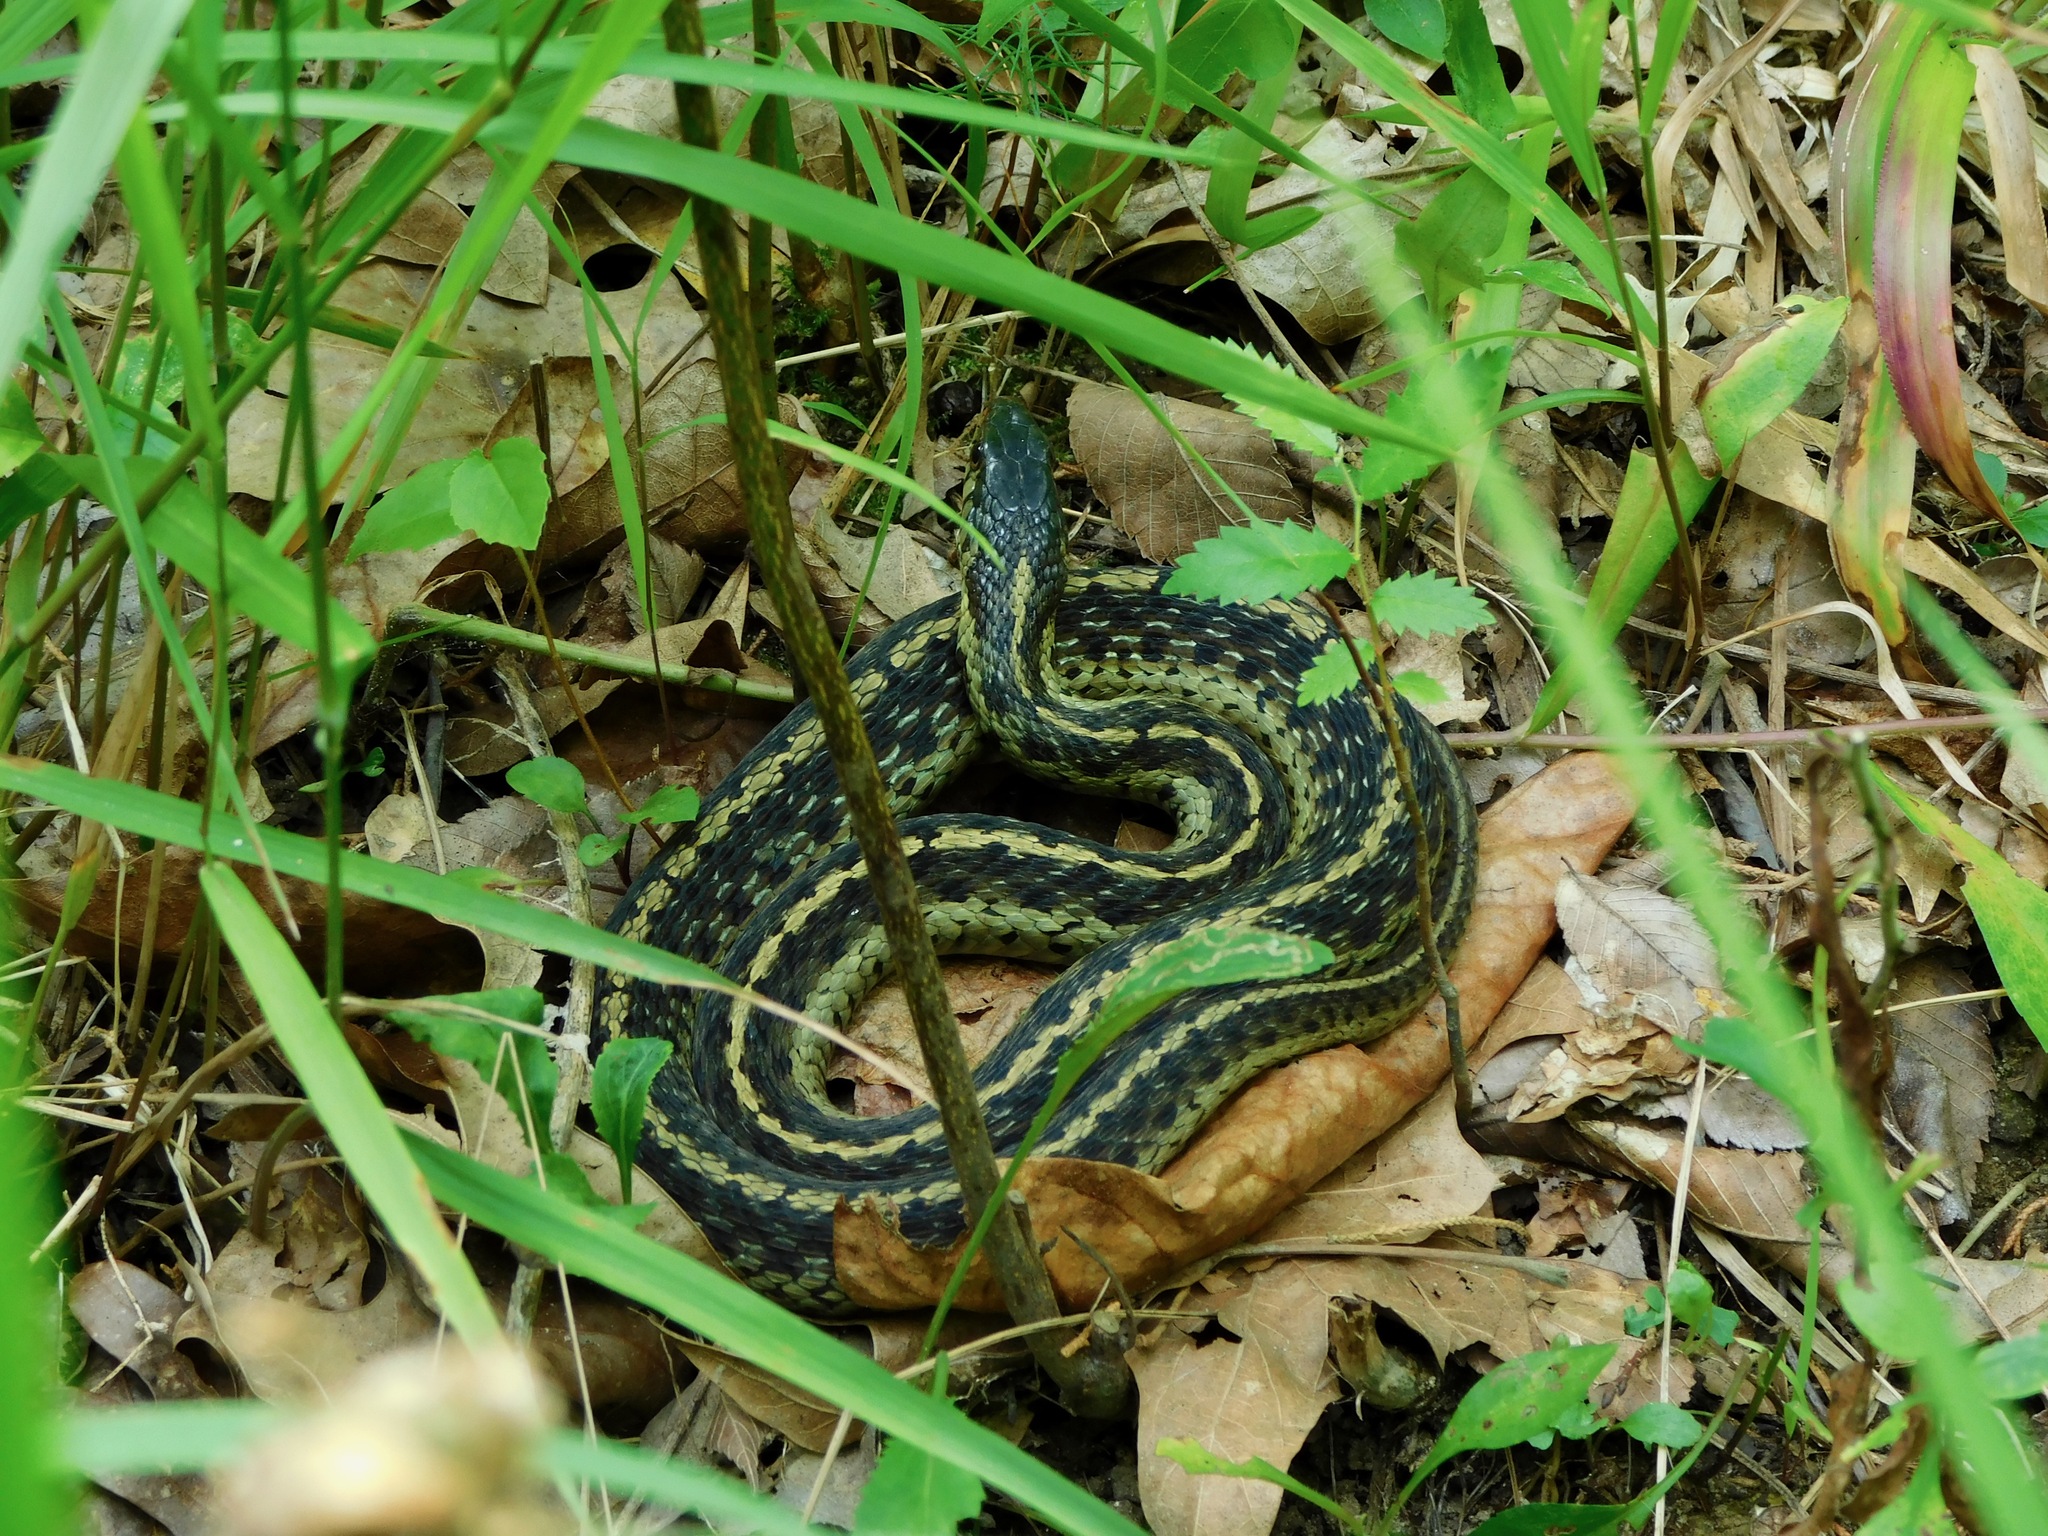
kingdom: Animalia
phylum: Chordata
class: Squamata
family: Colubridae
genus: Thamnophis
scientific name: Thamnophis sirtalis
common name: Common garter snake
